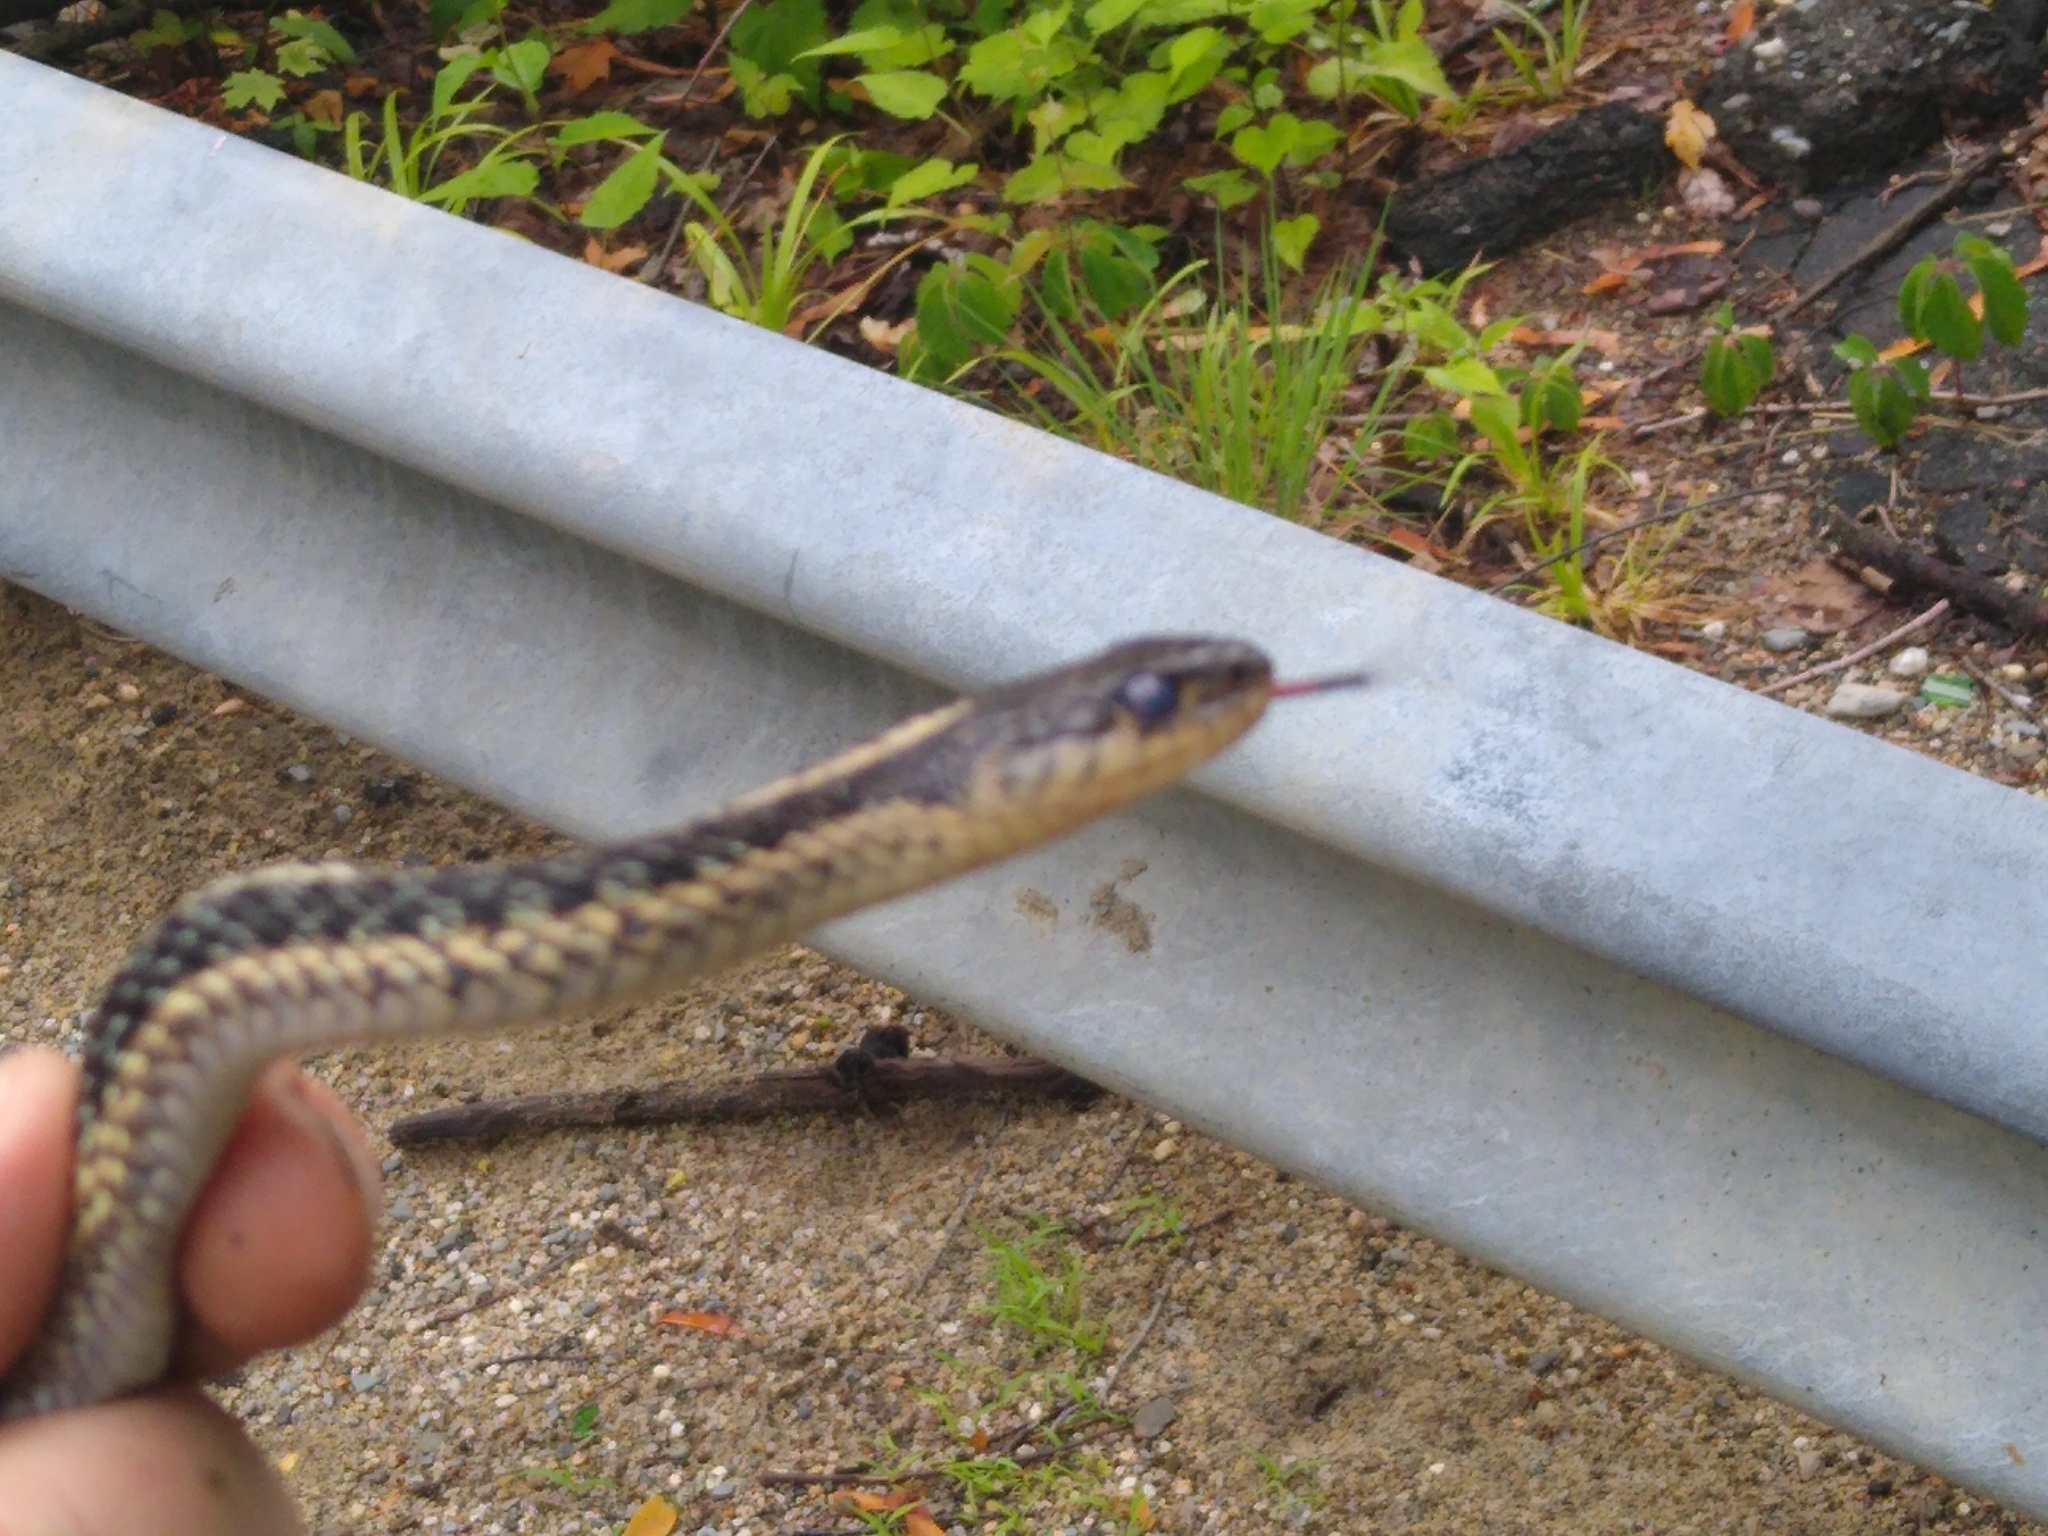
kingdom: Animalia
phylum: Chordata
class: Squamata
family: Colubridae
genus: Thamnophis
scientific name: Thamnophis sirtalis
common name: Common garter snake
